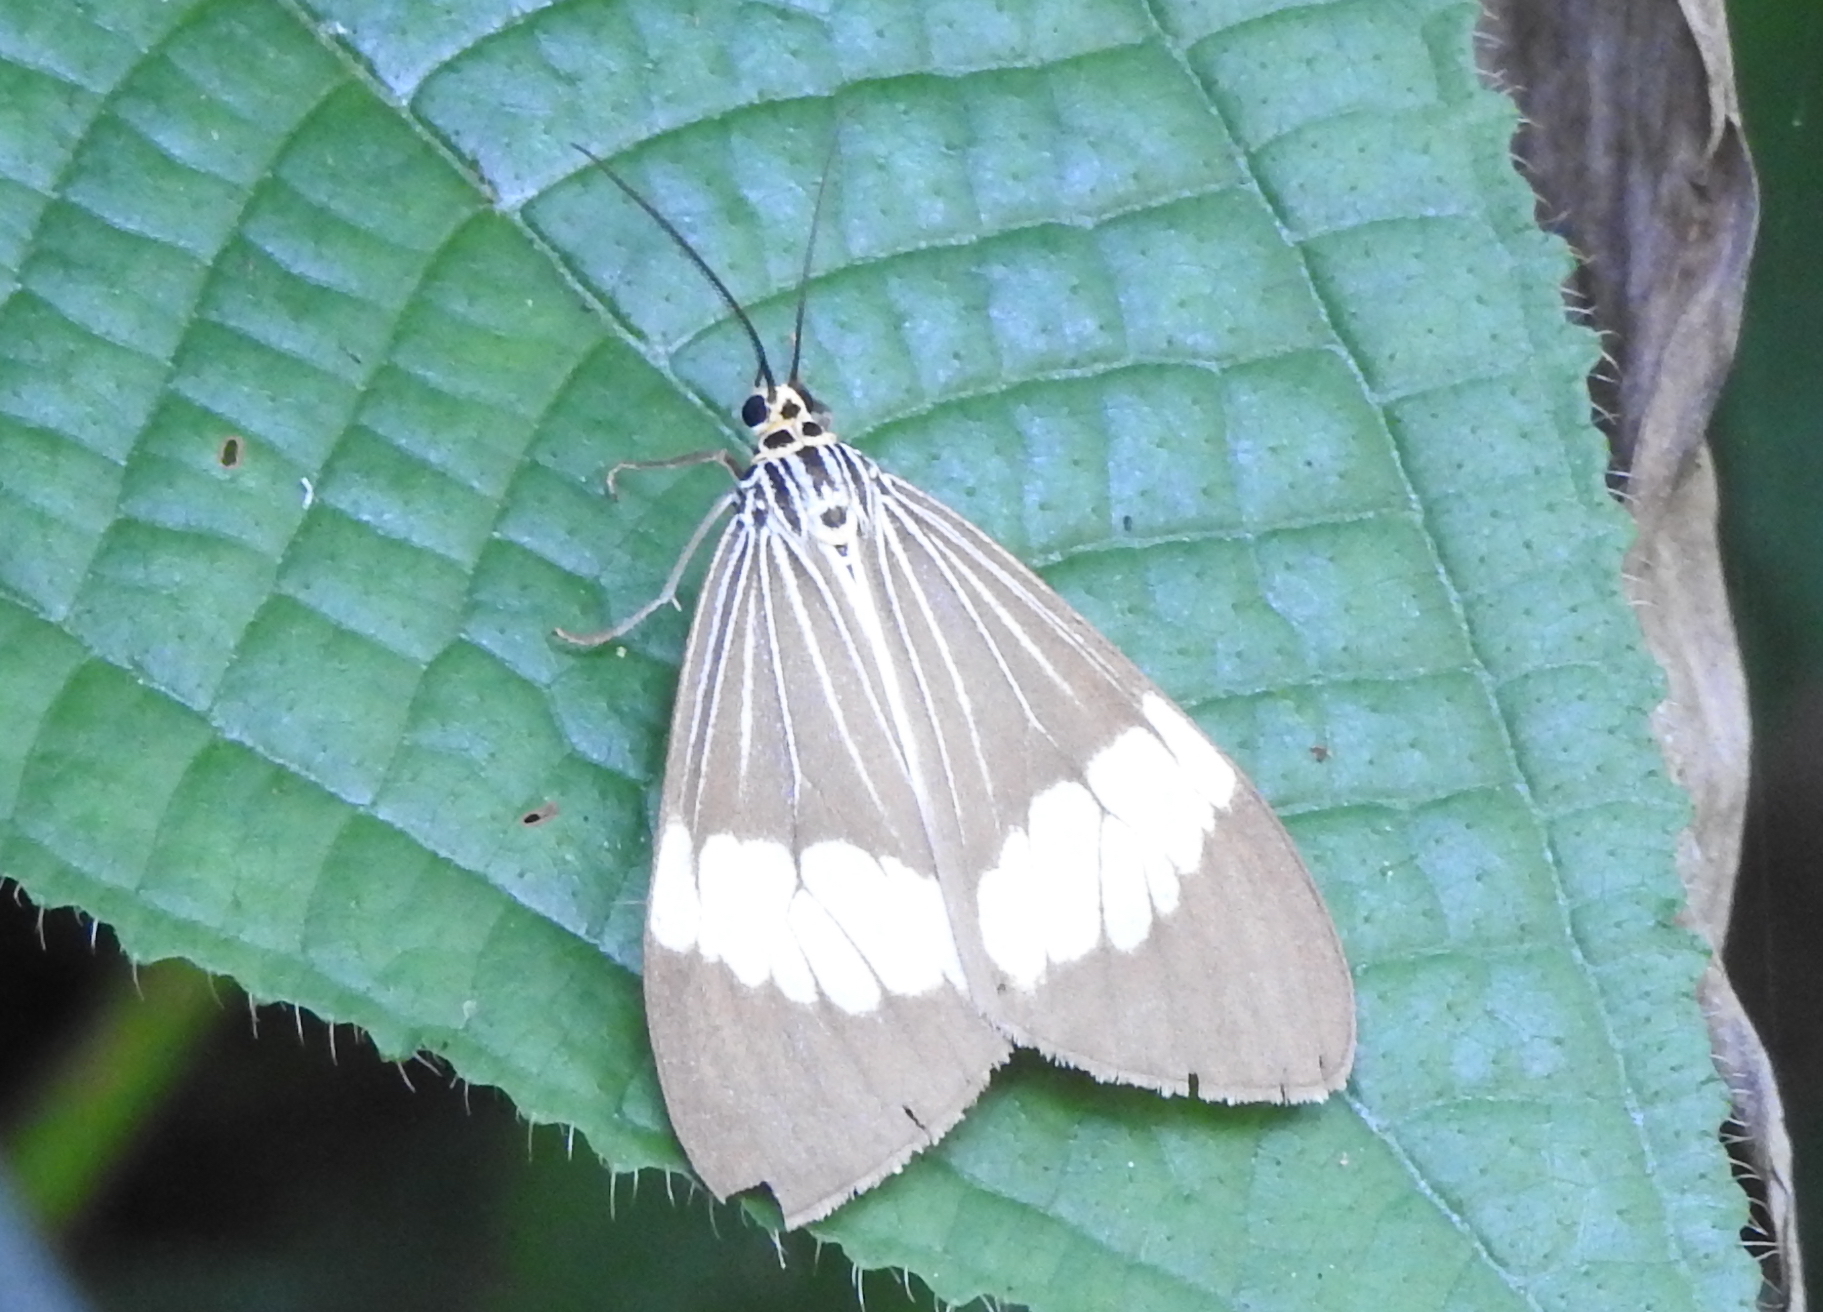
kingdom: Animalia
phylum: Arthropoda
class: Insecta
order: Lepidoptera
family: Erebidae
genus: Nyctemera
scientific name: Nyctemera baulus
